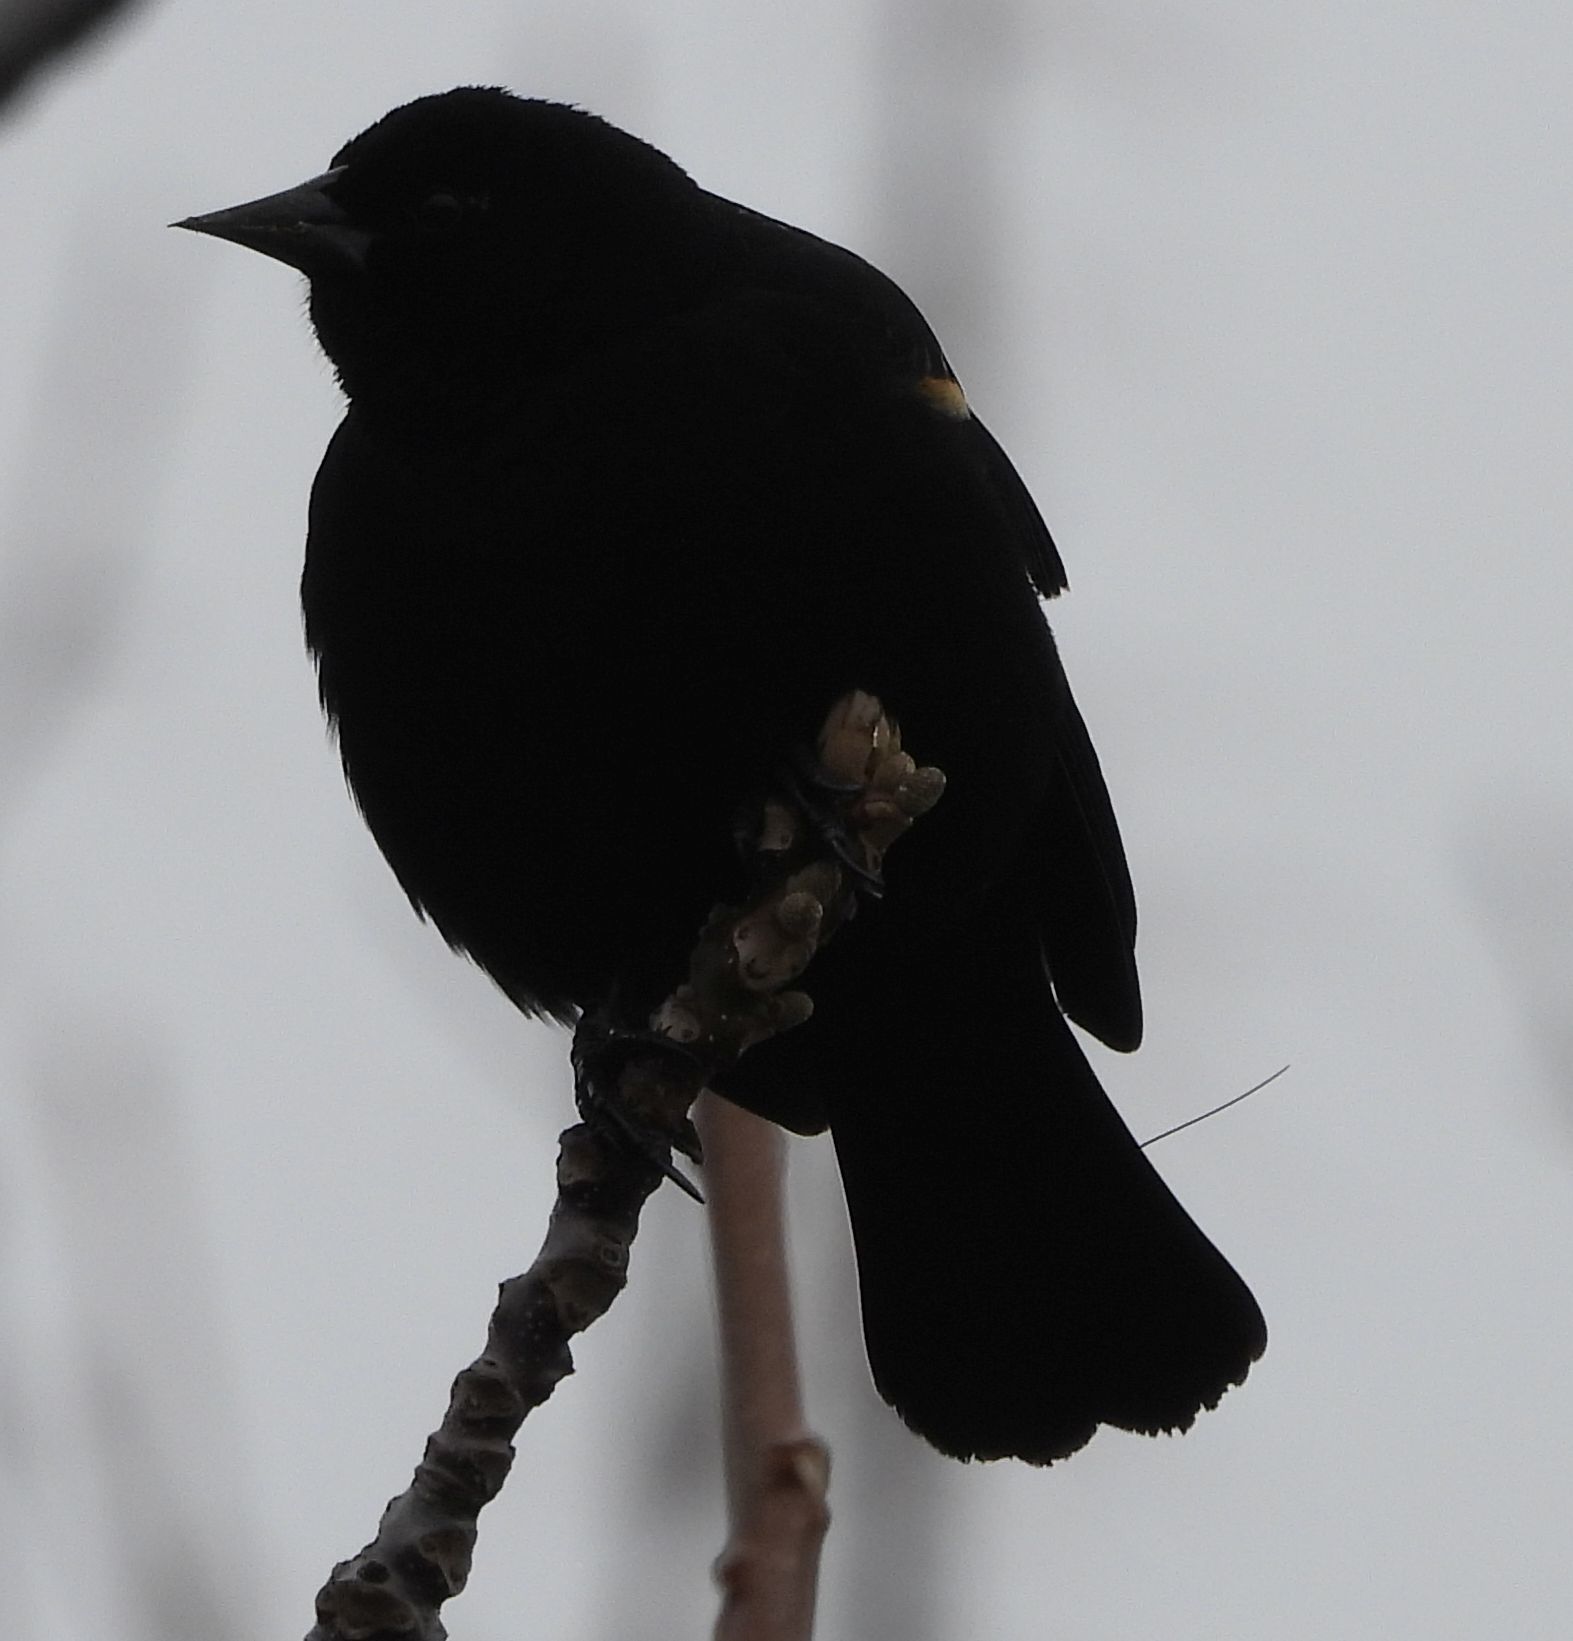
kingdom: Animalia
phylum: Chordata
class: Aves
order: Passeriformes
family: Icteridae
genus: Agelaius
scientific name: Agelaius phoeniceus
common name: Red-winged blackbird
